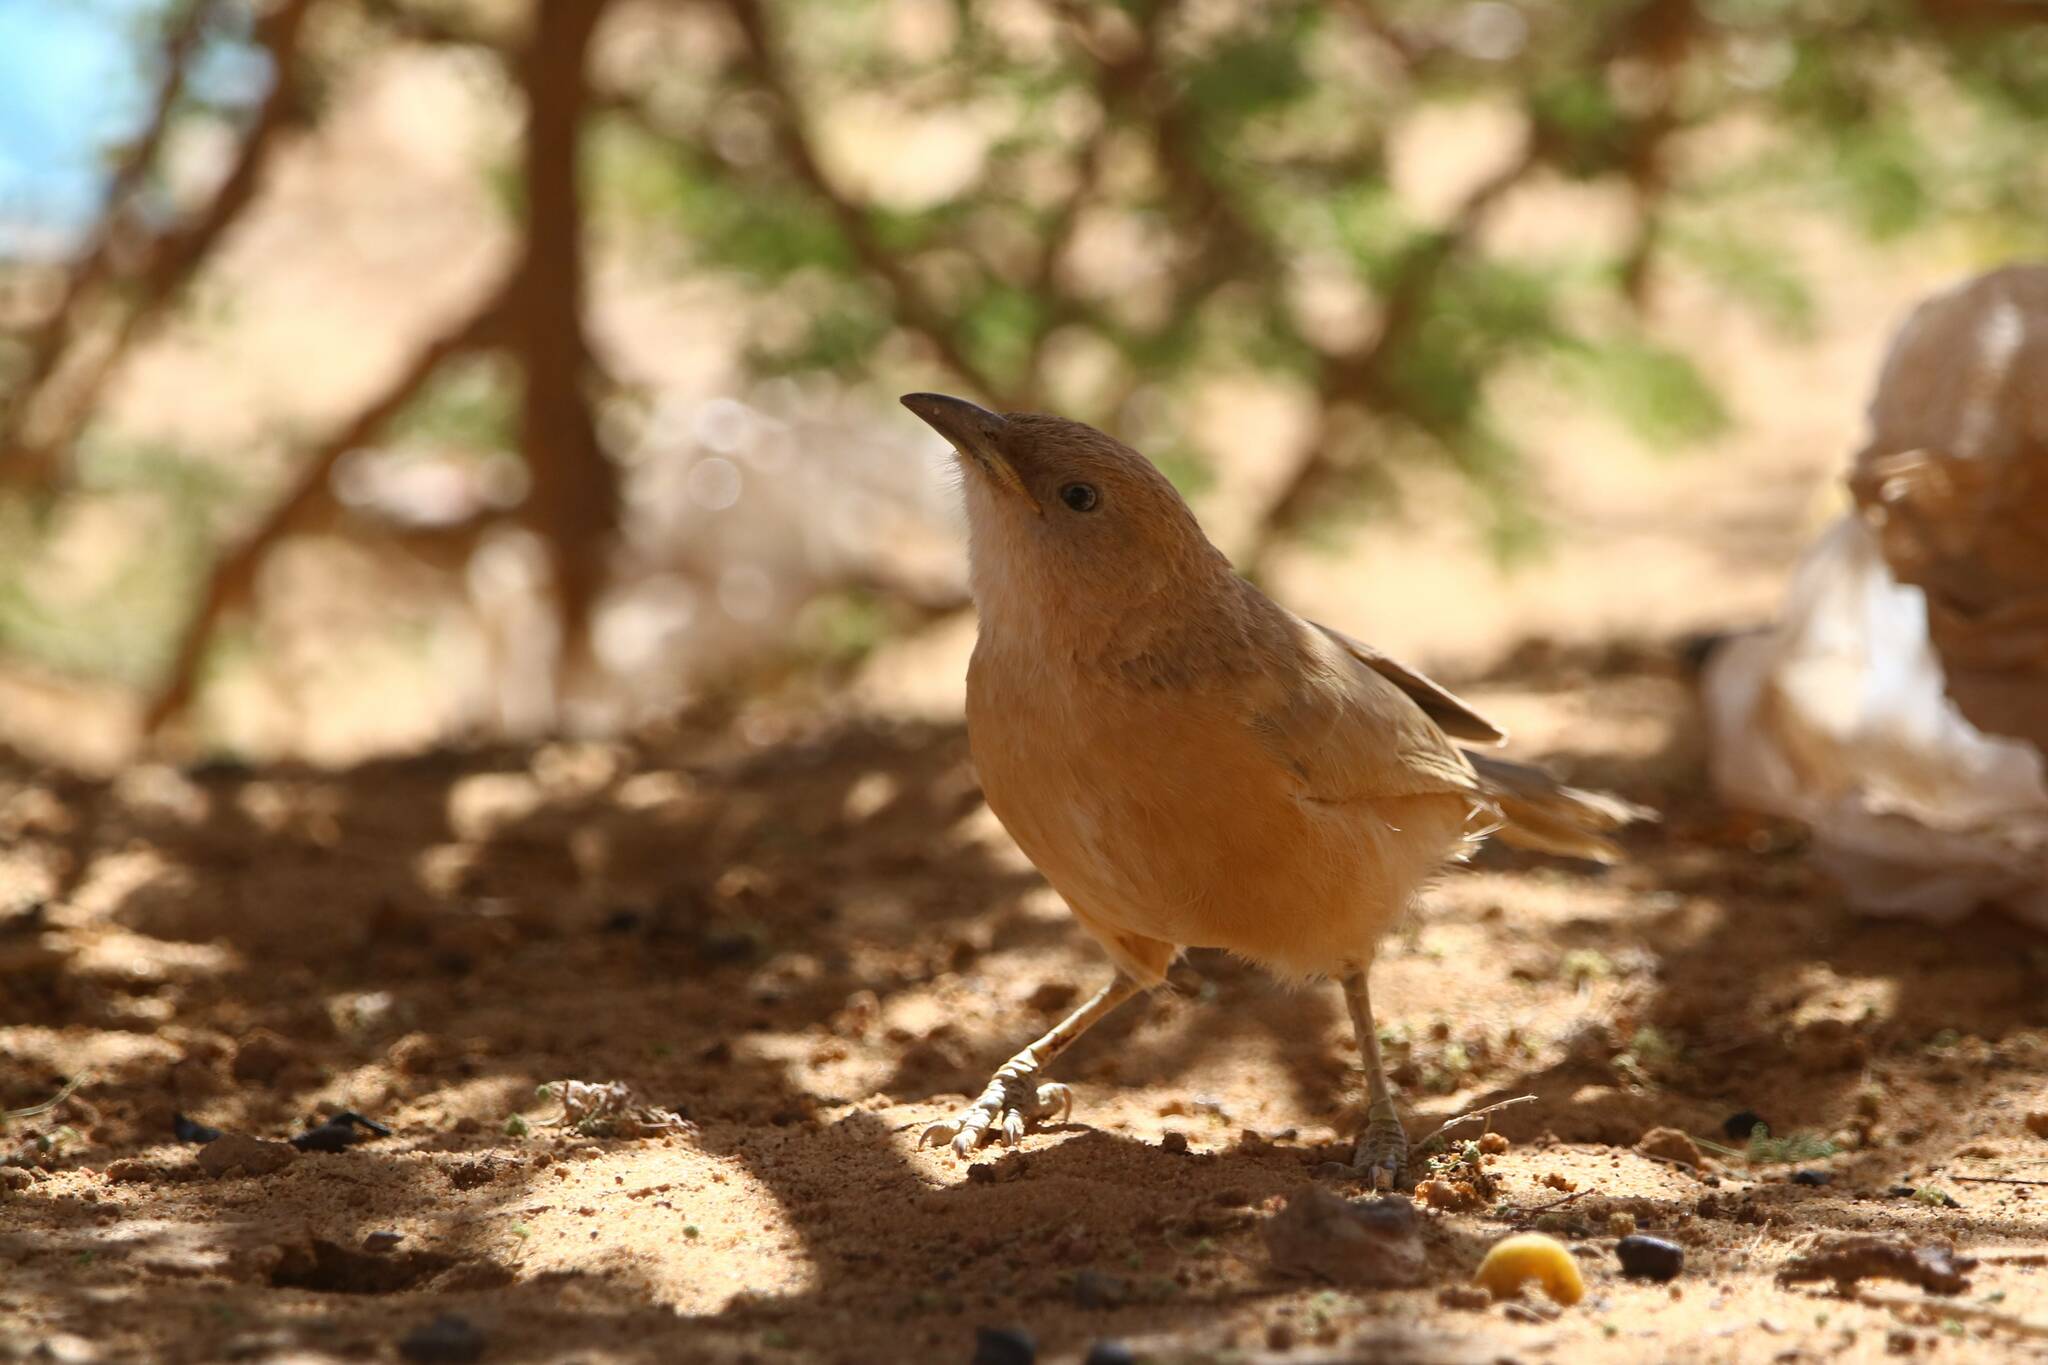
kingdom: Animalia
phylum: Chordata
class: Aves
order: Passeriformes
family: Leiothrichidae
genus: Turdoides
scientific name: Turdoides fulva
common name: Fulvous babbler
